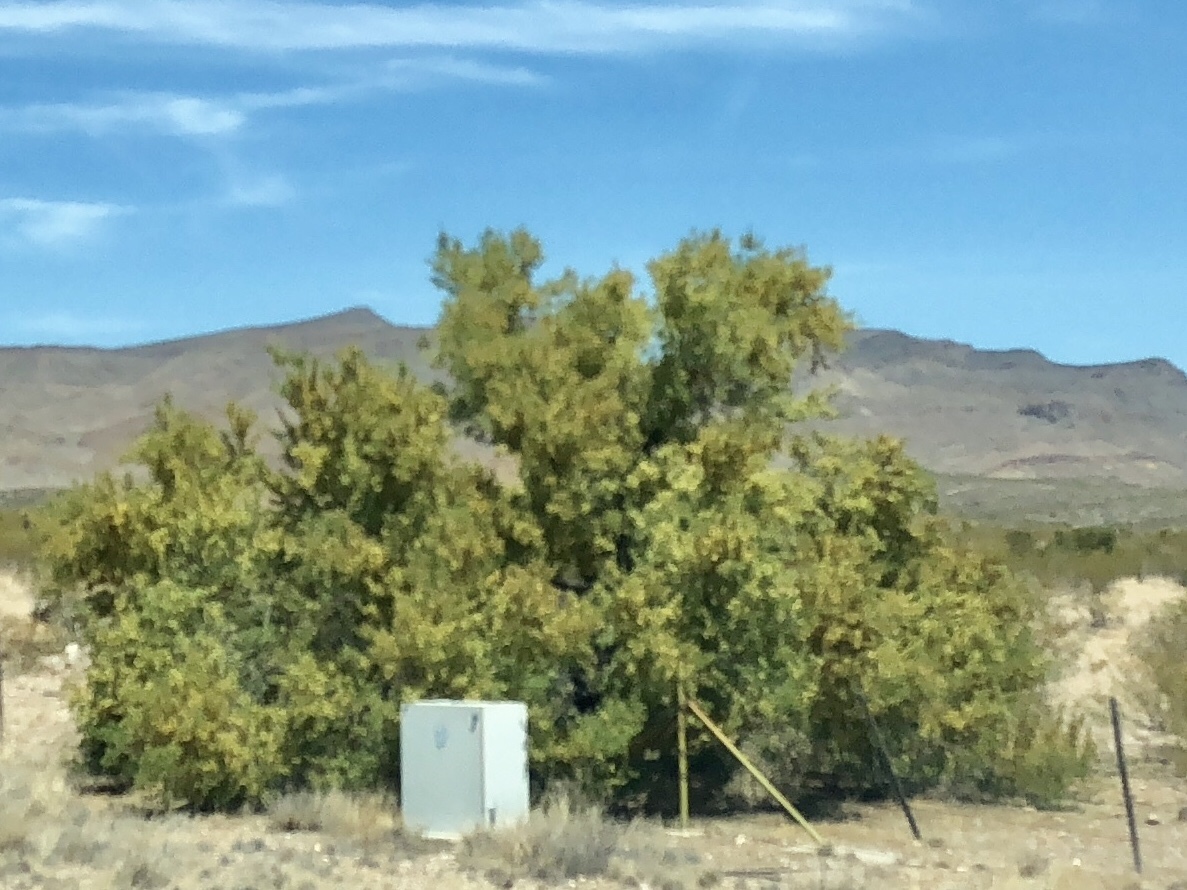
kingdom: Plantae
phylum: Tracheophyta
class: Magnoliopsida
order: Fabales
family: Fabaceae
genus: Senegalia
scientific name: Senegalia greggii
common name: Texas-mimosa
